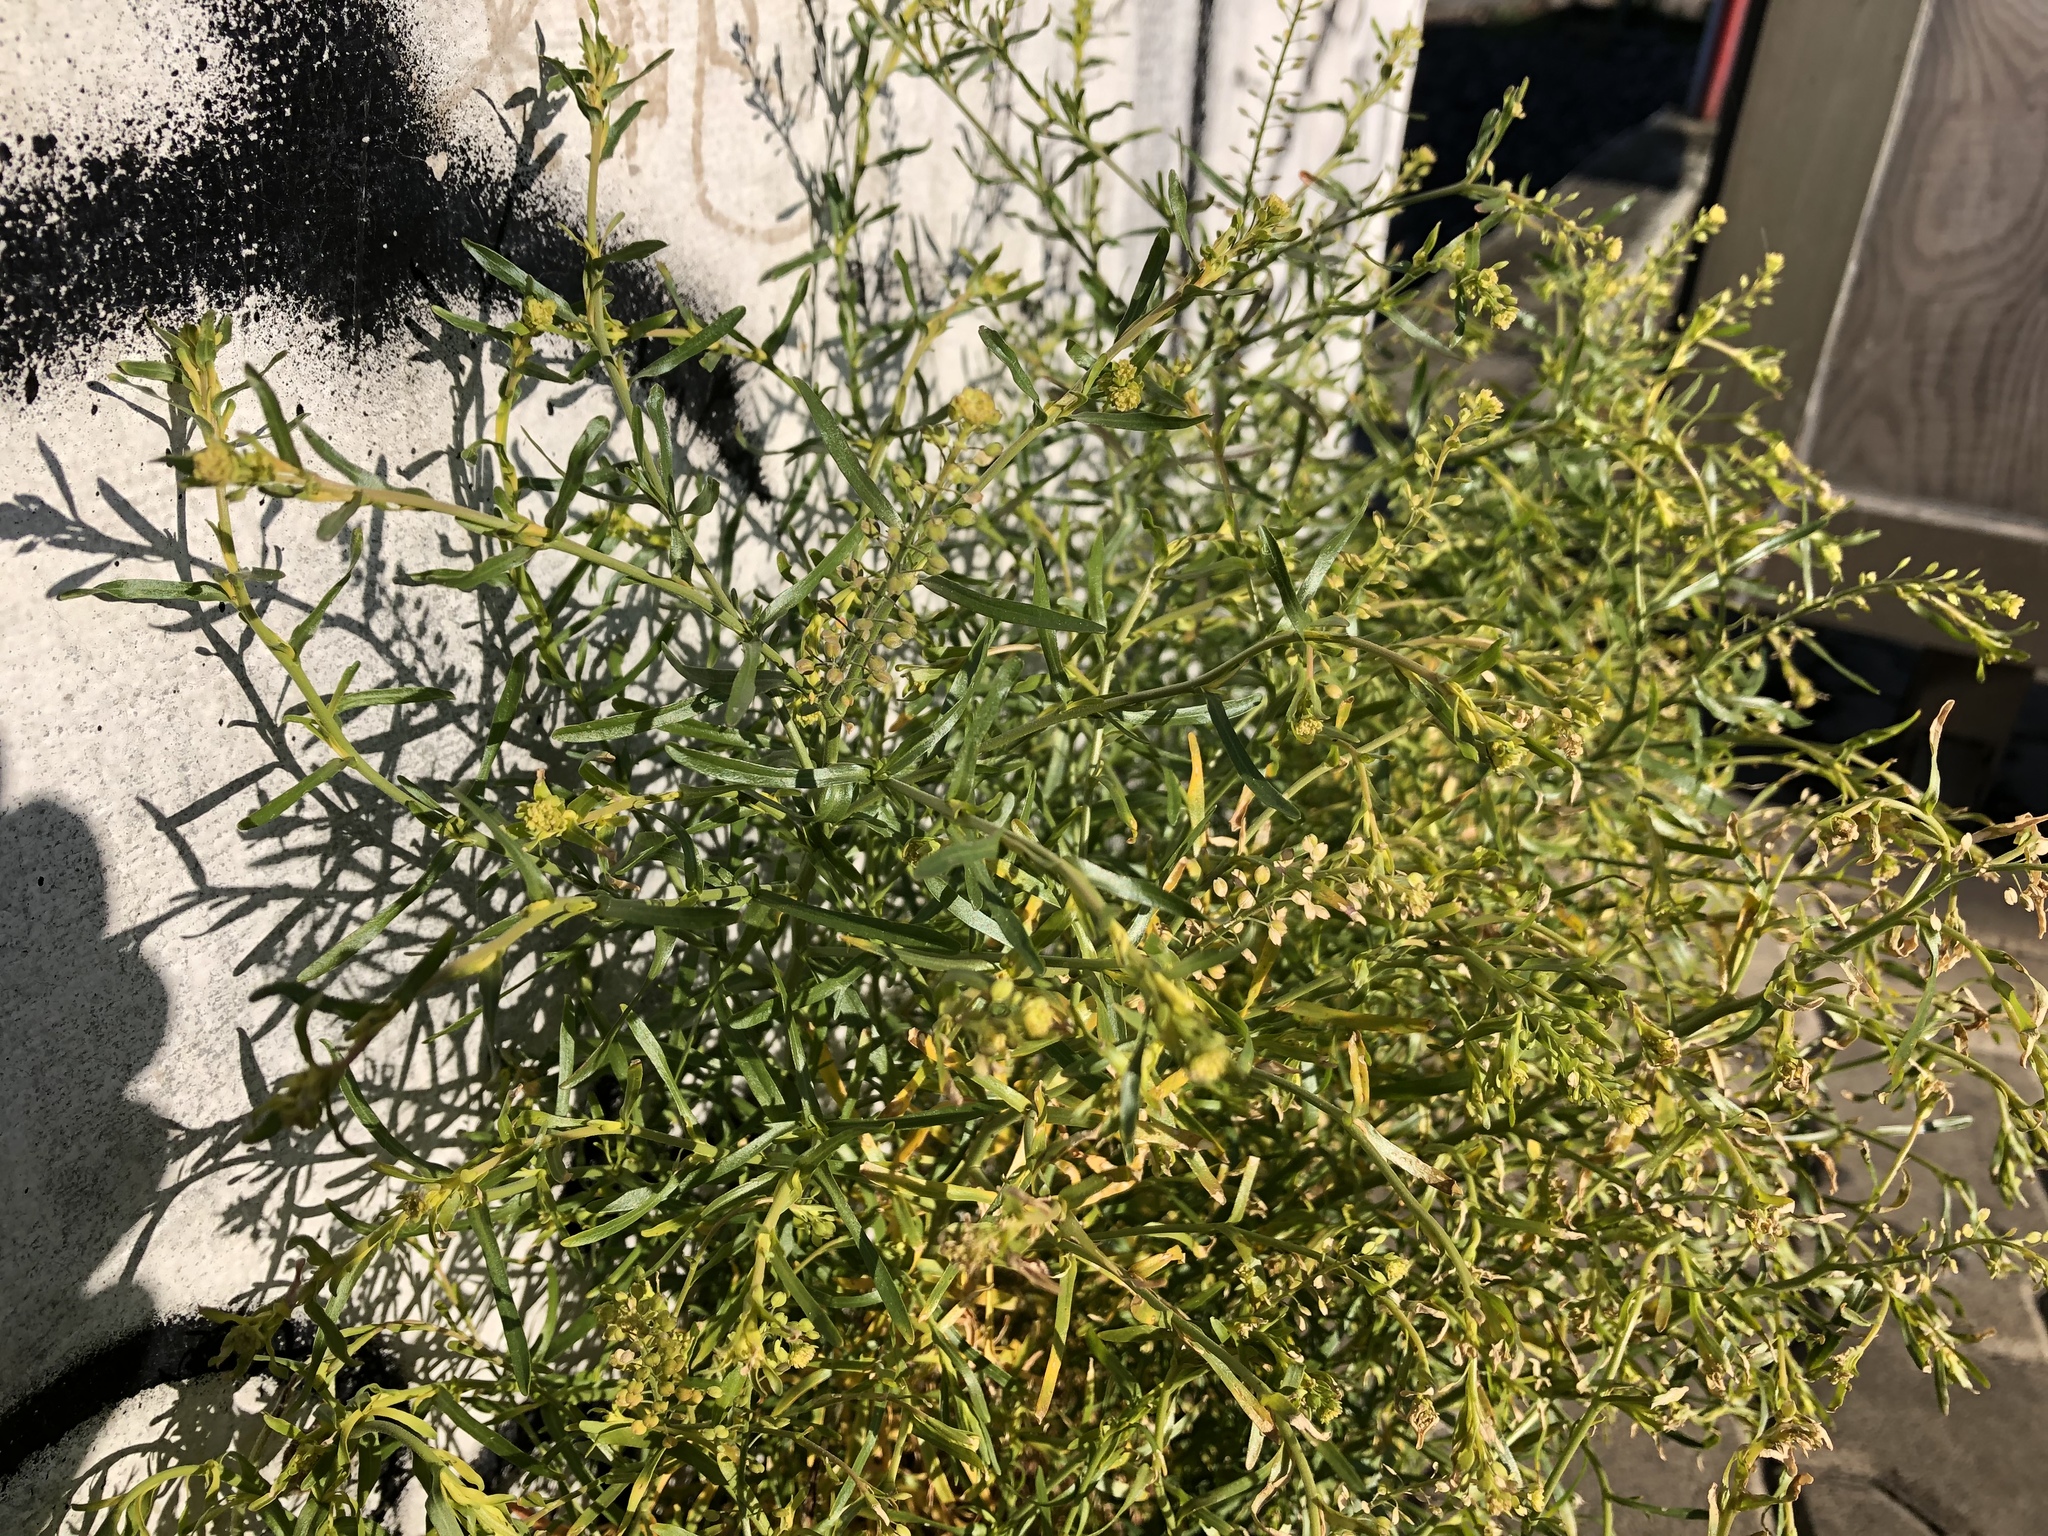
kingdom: Plantae
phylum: Tracheophyta
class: Magnoliopsida
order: Brassicales
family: Brassicaceae
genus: Lepidium
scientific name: Lepidium ruderale
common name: Narrow-leaved pepperwort
